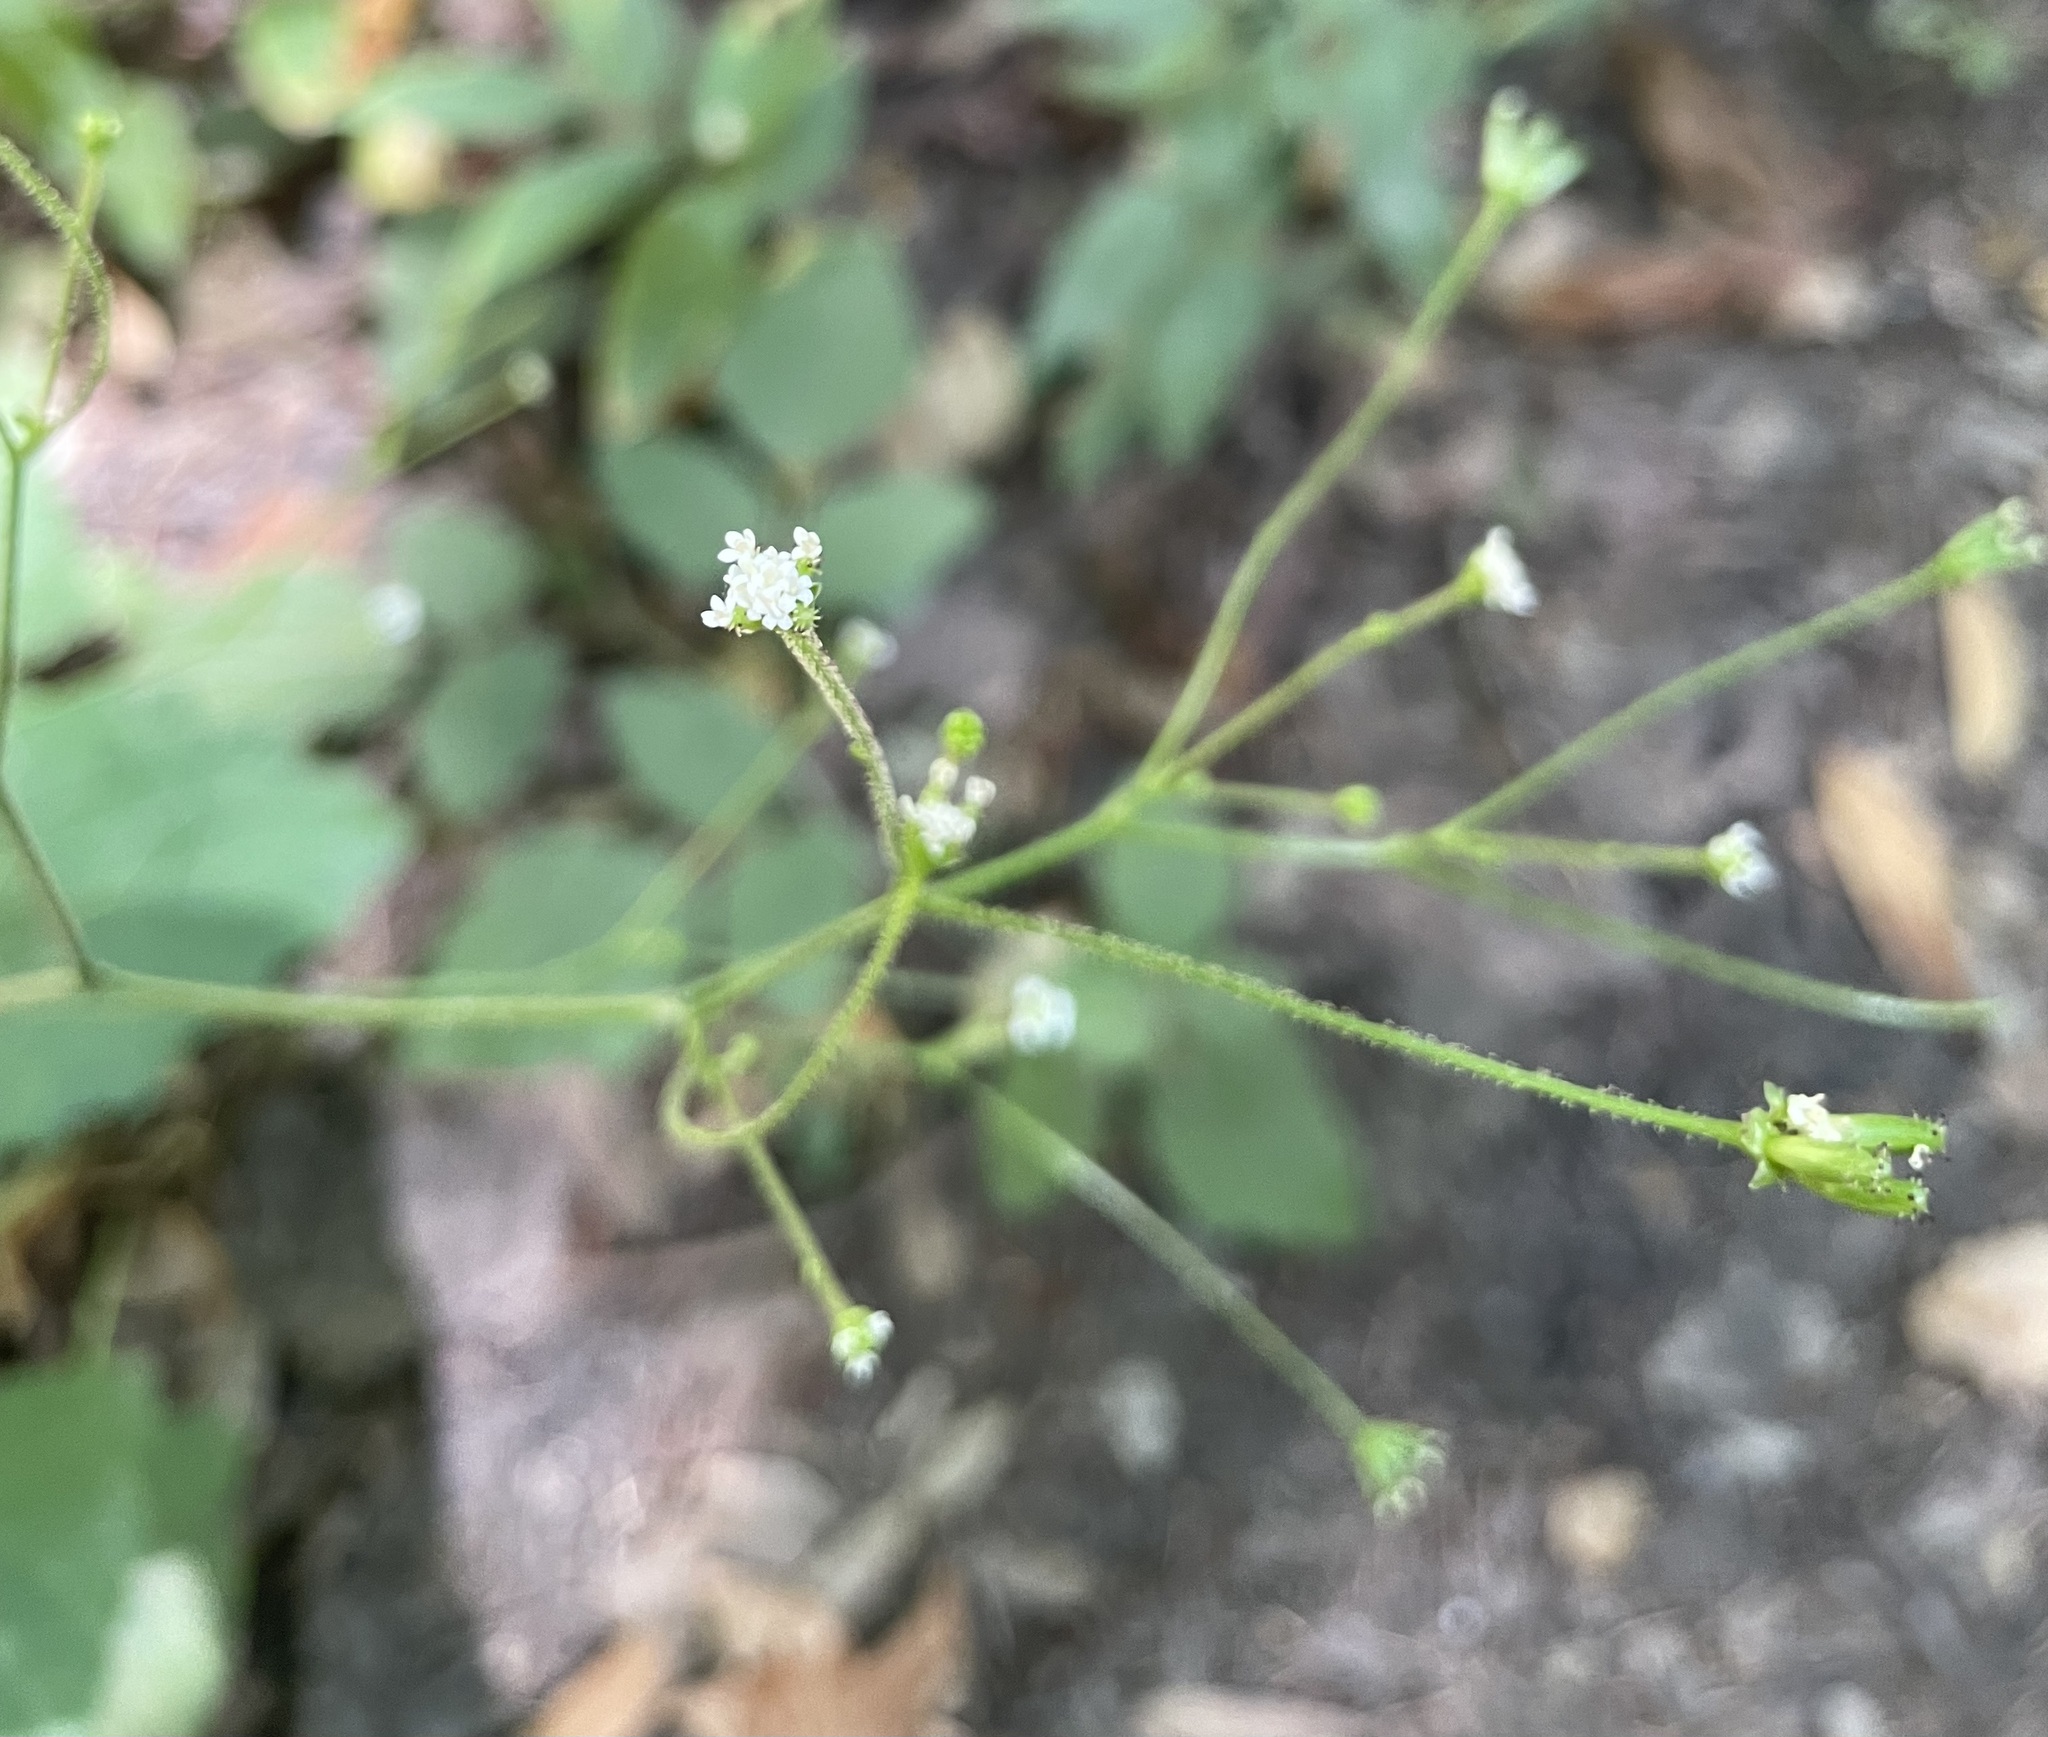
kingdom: Plantae
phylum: Tracheophyta
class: Magnoliopsida
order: Asterales
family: Asteraceae
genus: Adenocaulon
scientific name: Adenocaulon bicolor
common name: Trailplant
